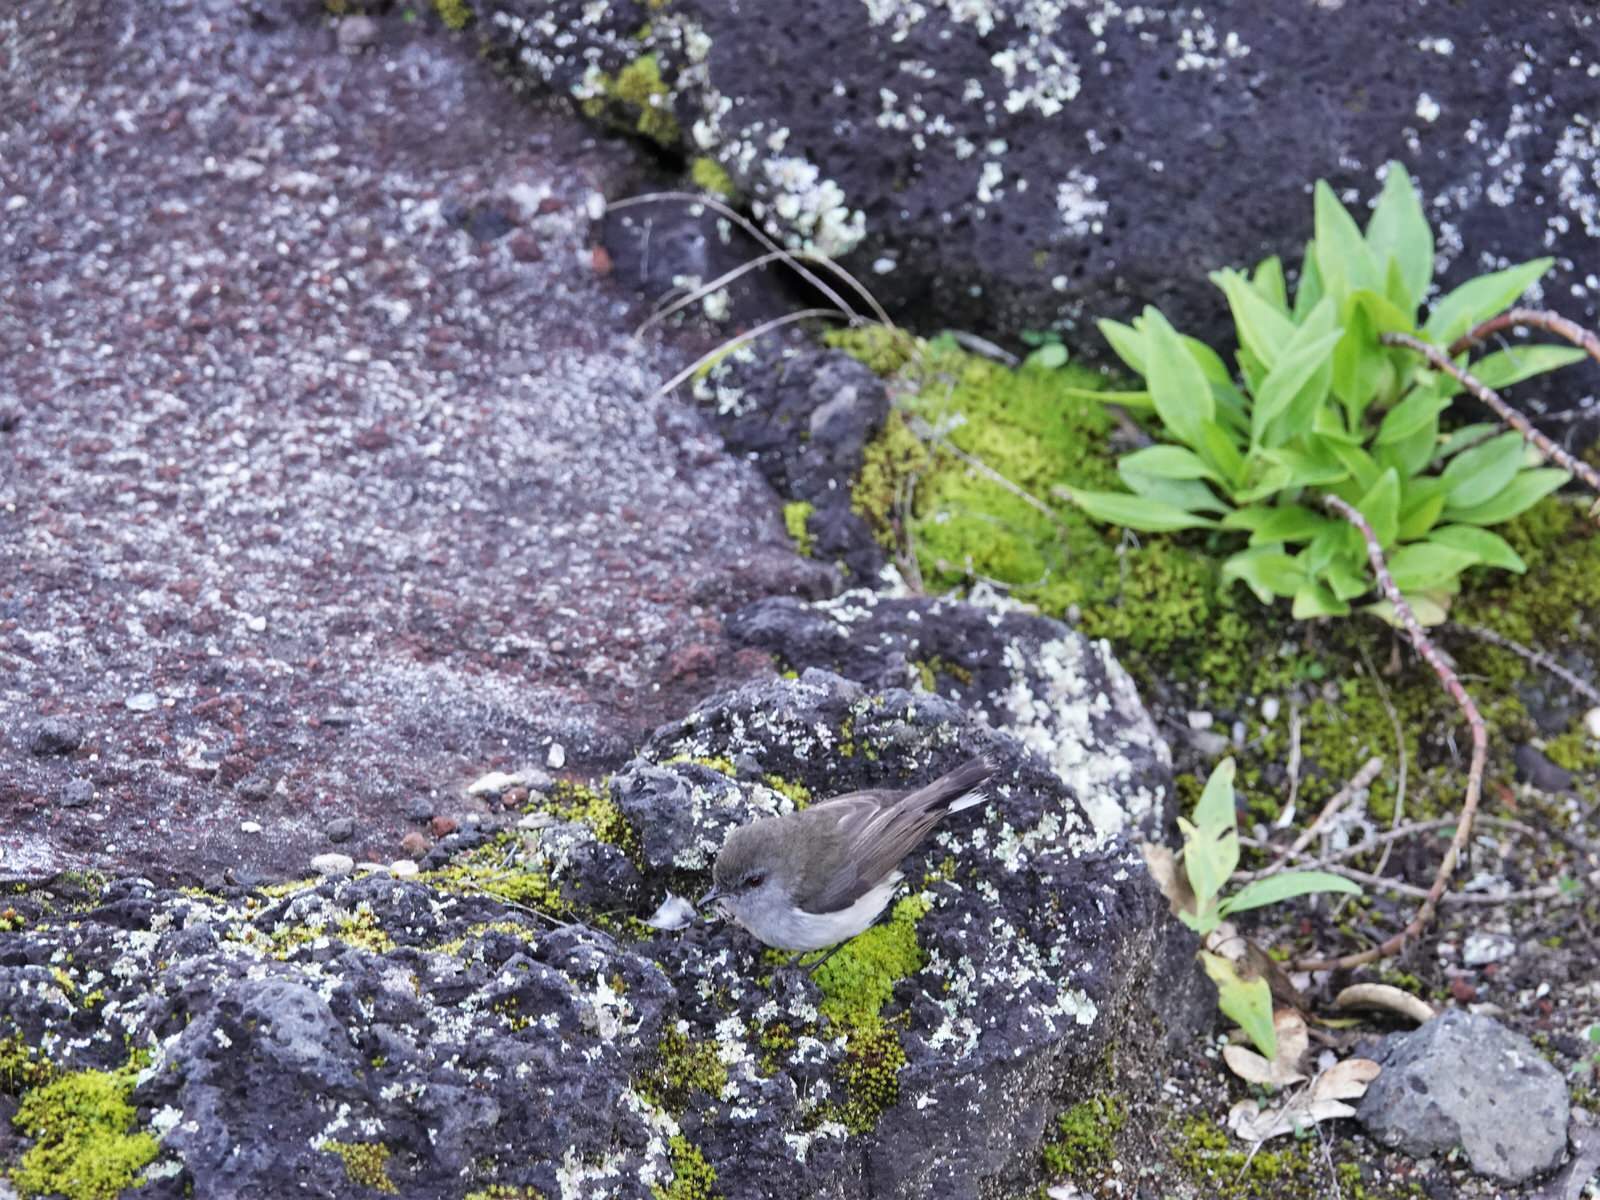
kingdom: Animalia
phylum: Chordata
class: Aves
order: Passeriformes
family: Acanthizidae
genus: Gerygone
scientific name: Gerygone igata
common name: Grey gerygone
